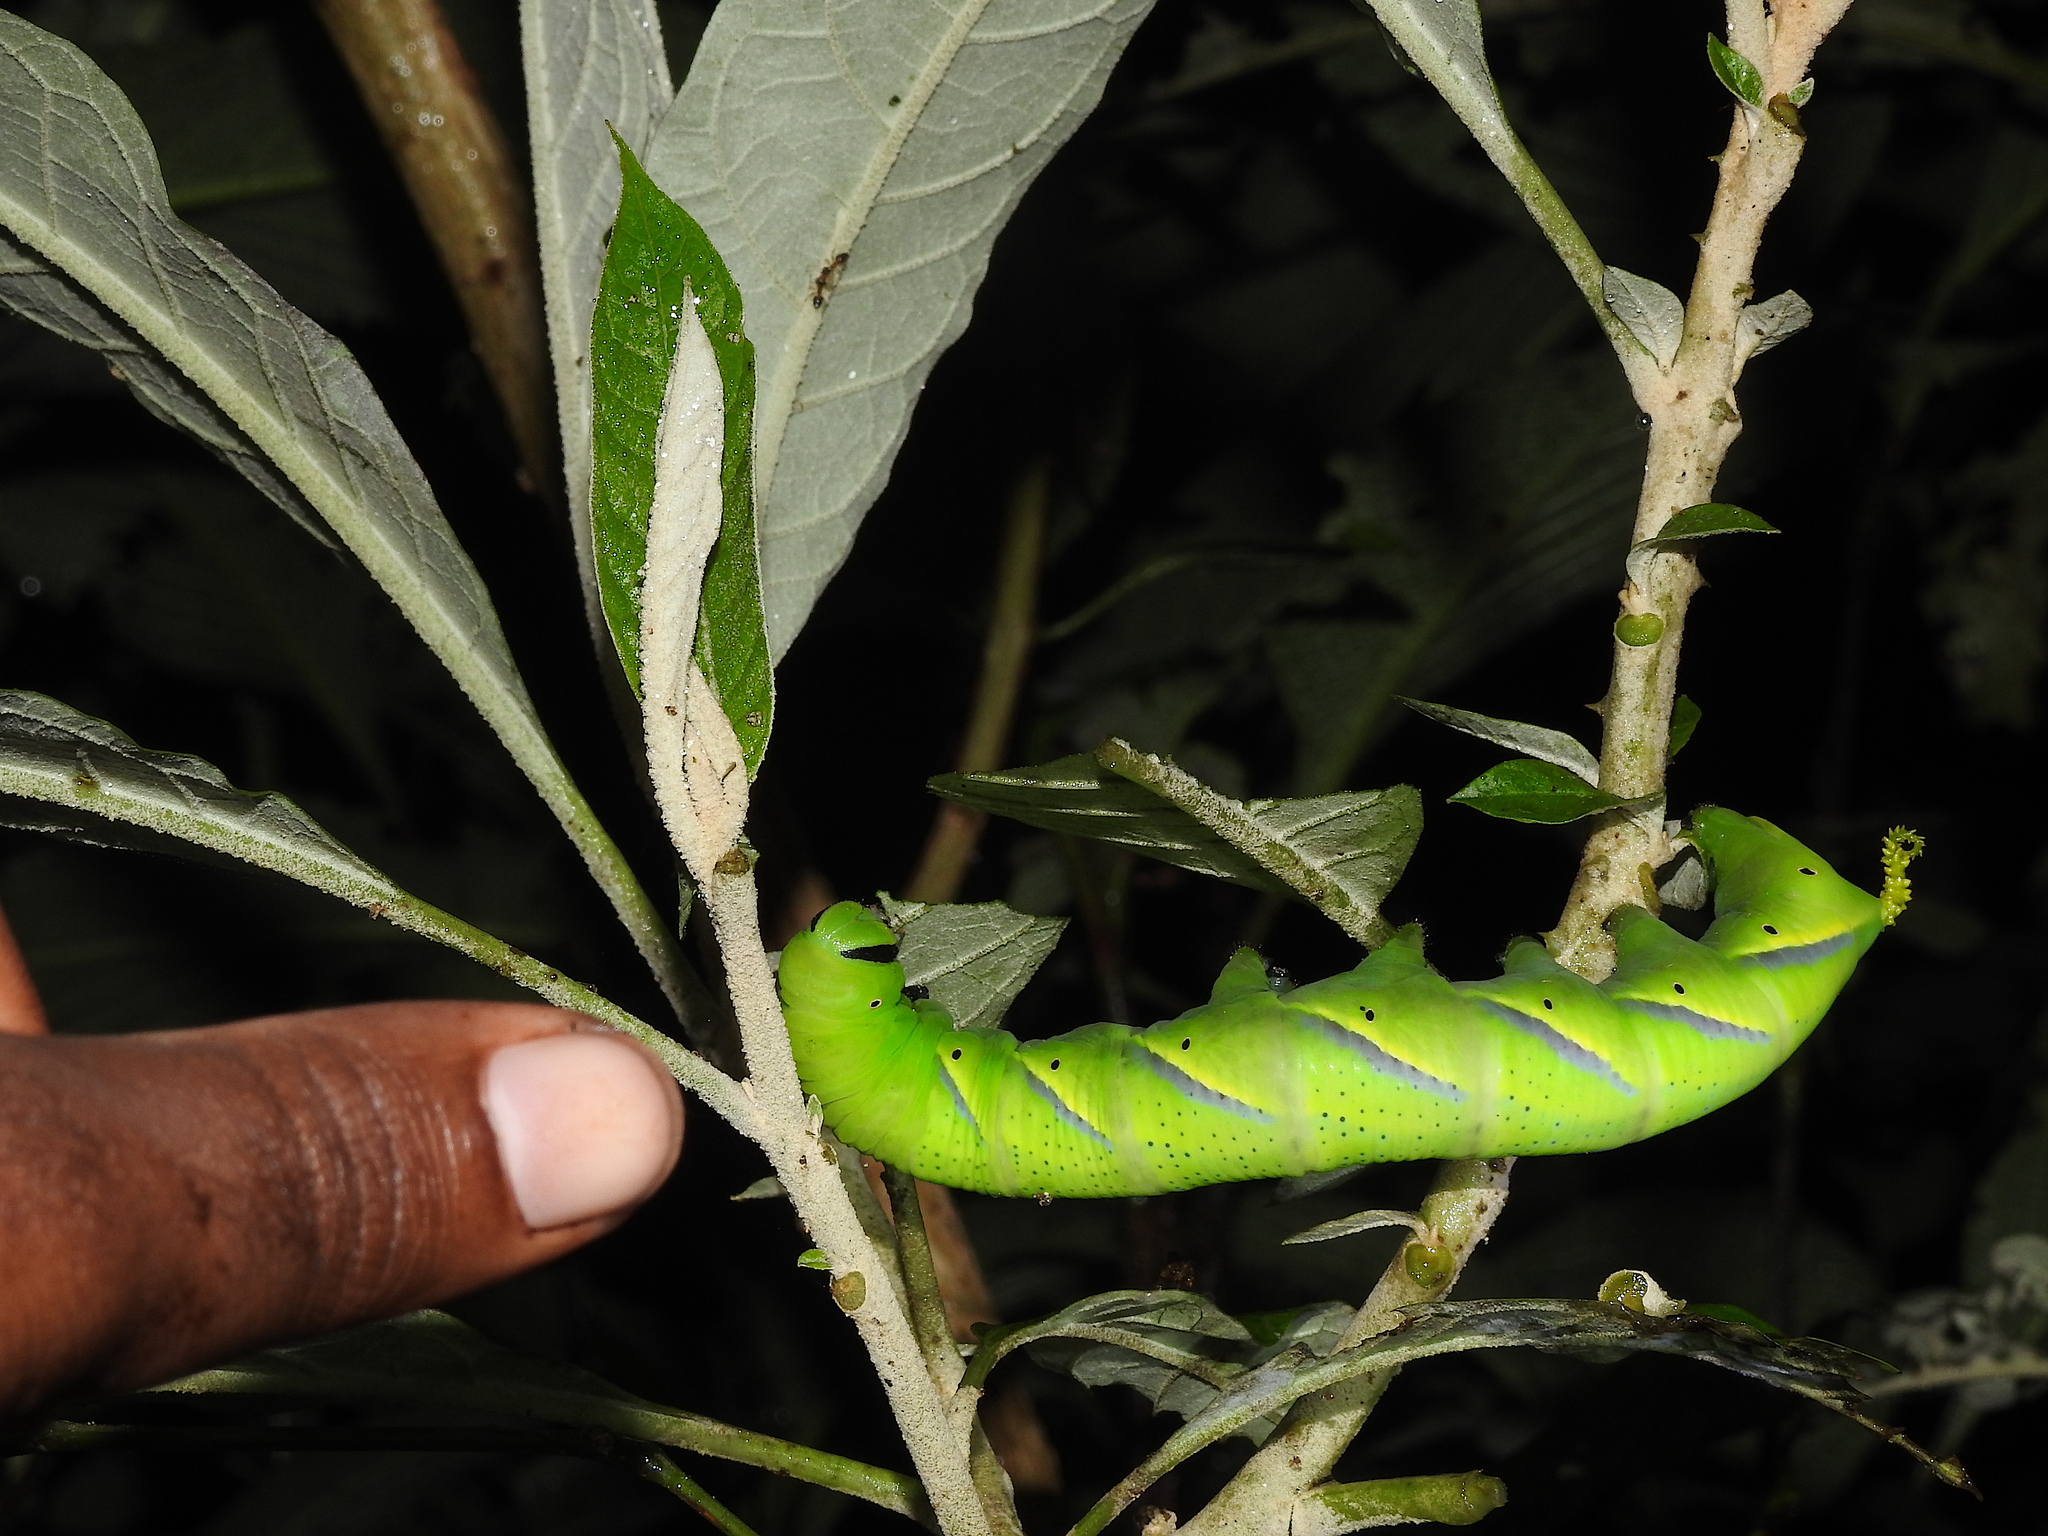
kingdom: Animalia
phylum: Arthropoda
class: Insecta
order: Lepidoptera
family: Sphingidae
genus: Acherontia
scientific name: Acherontia lachesis
